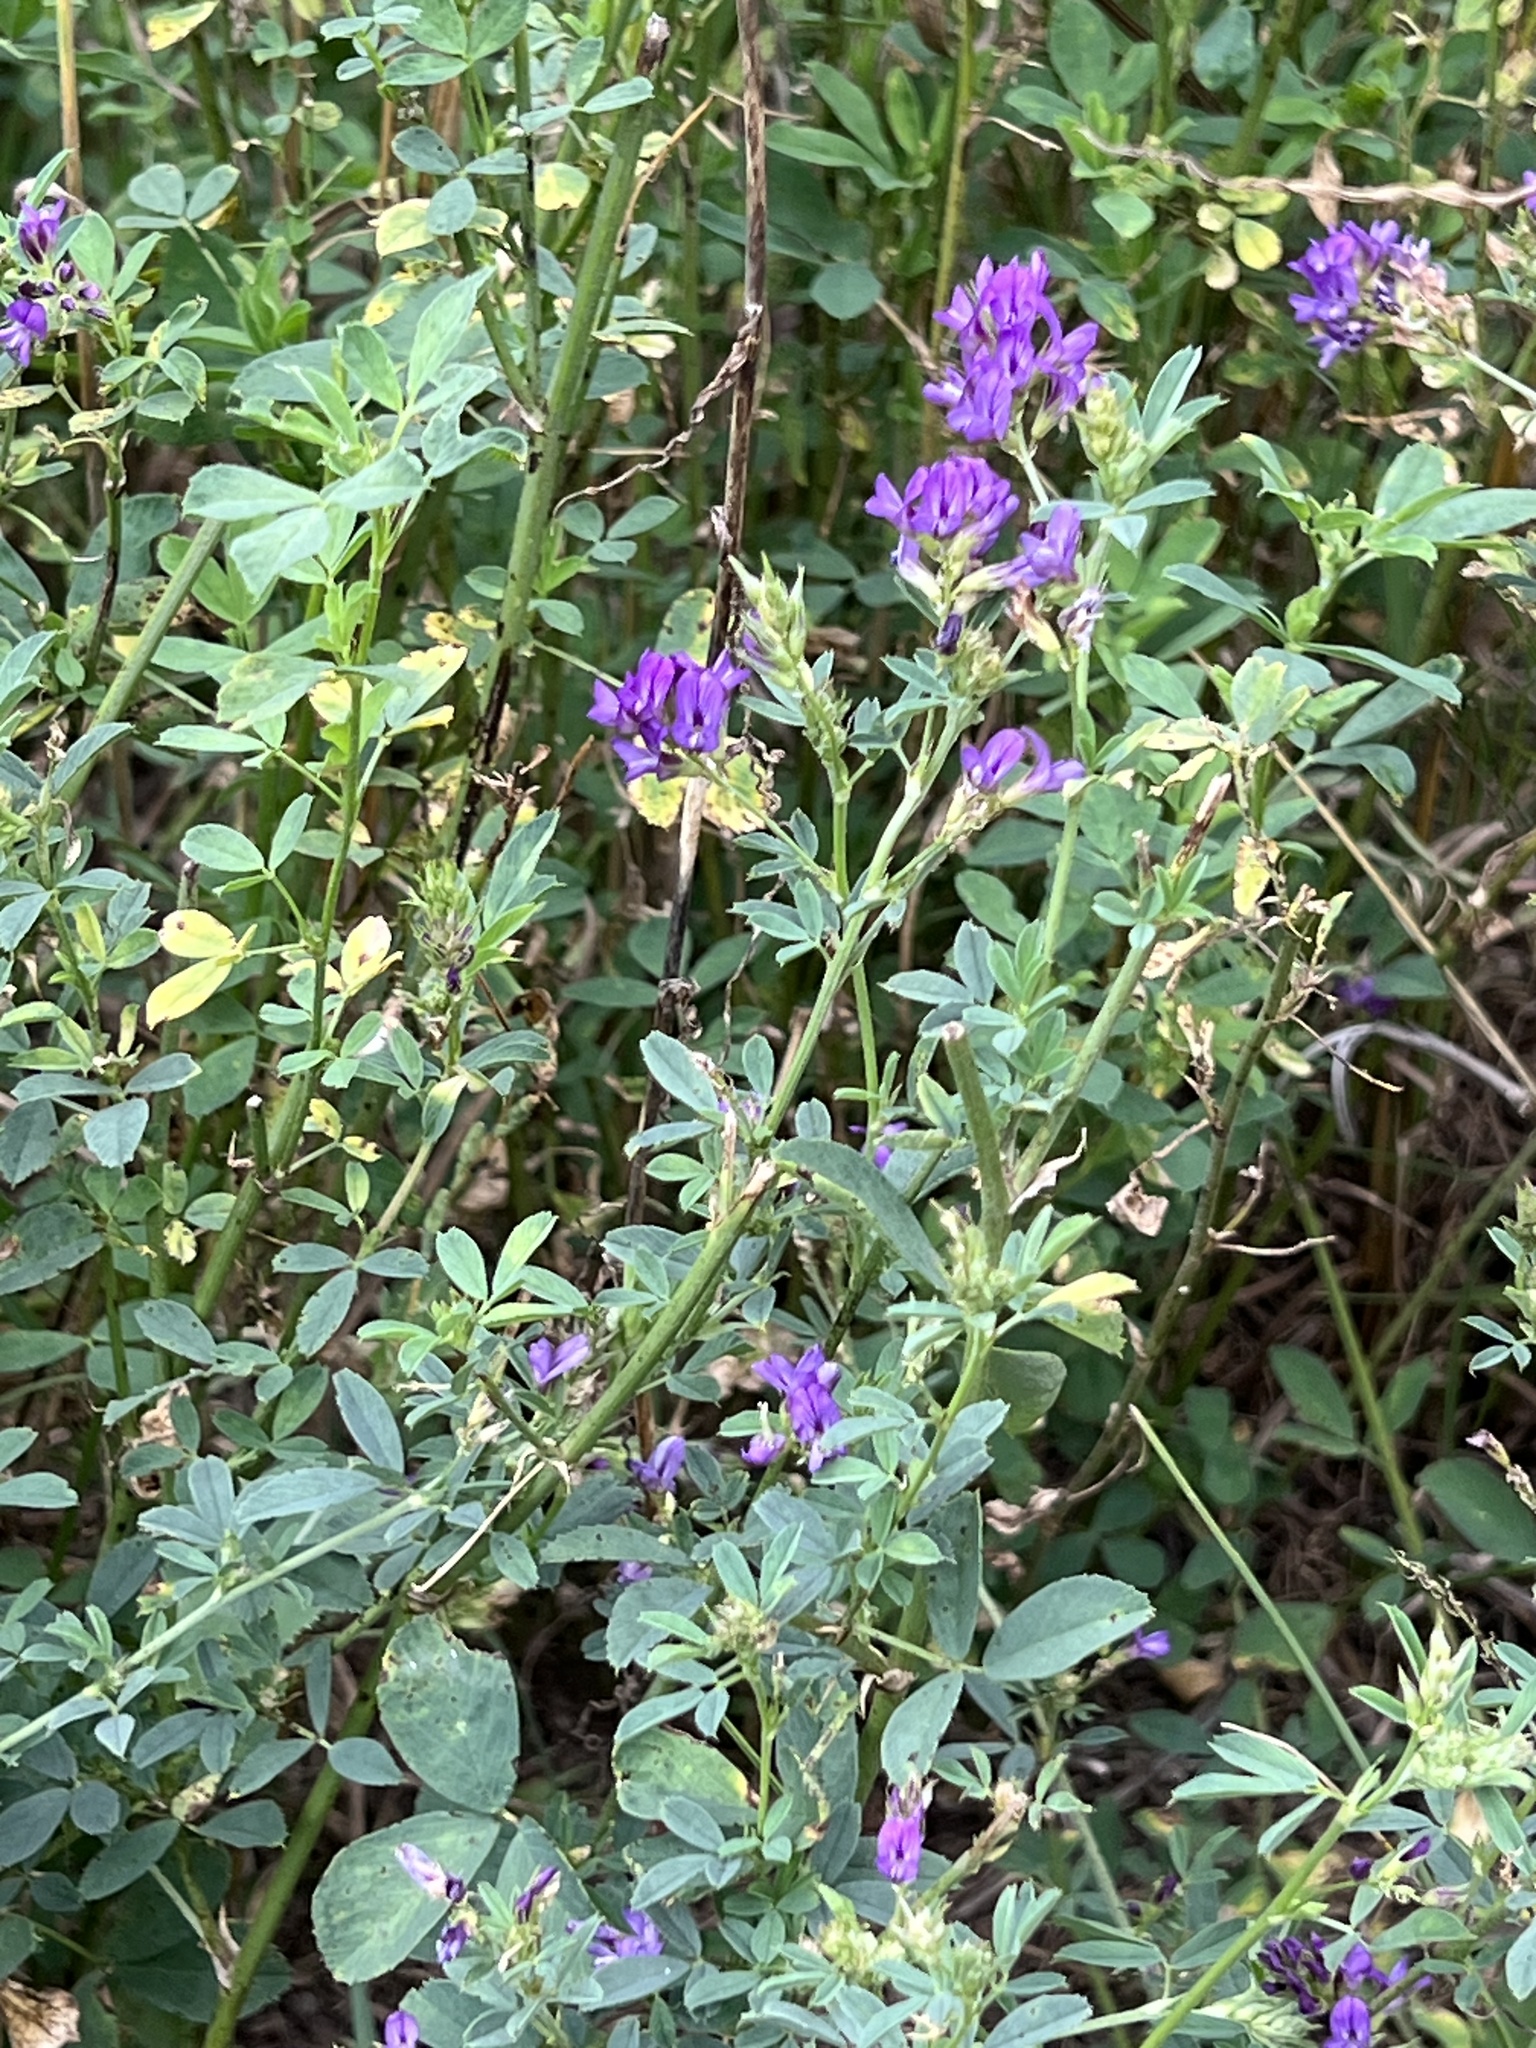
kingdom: Plantae
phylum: Tracheophyta
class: Magnoliopsida
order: Fabales
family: Fabaceae
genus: Medicago
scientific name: Medicago sativa
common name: Alfalfa
